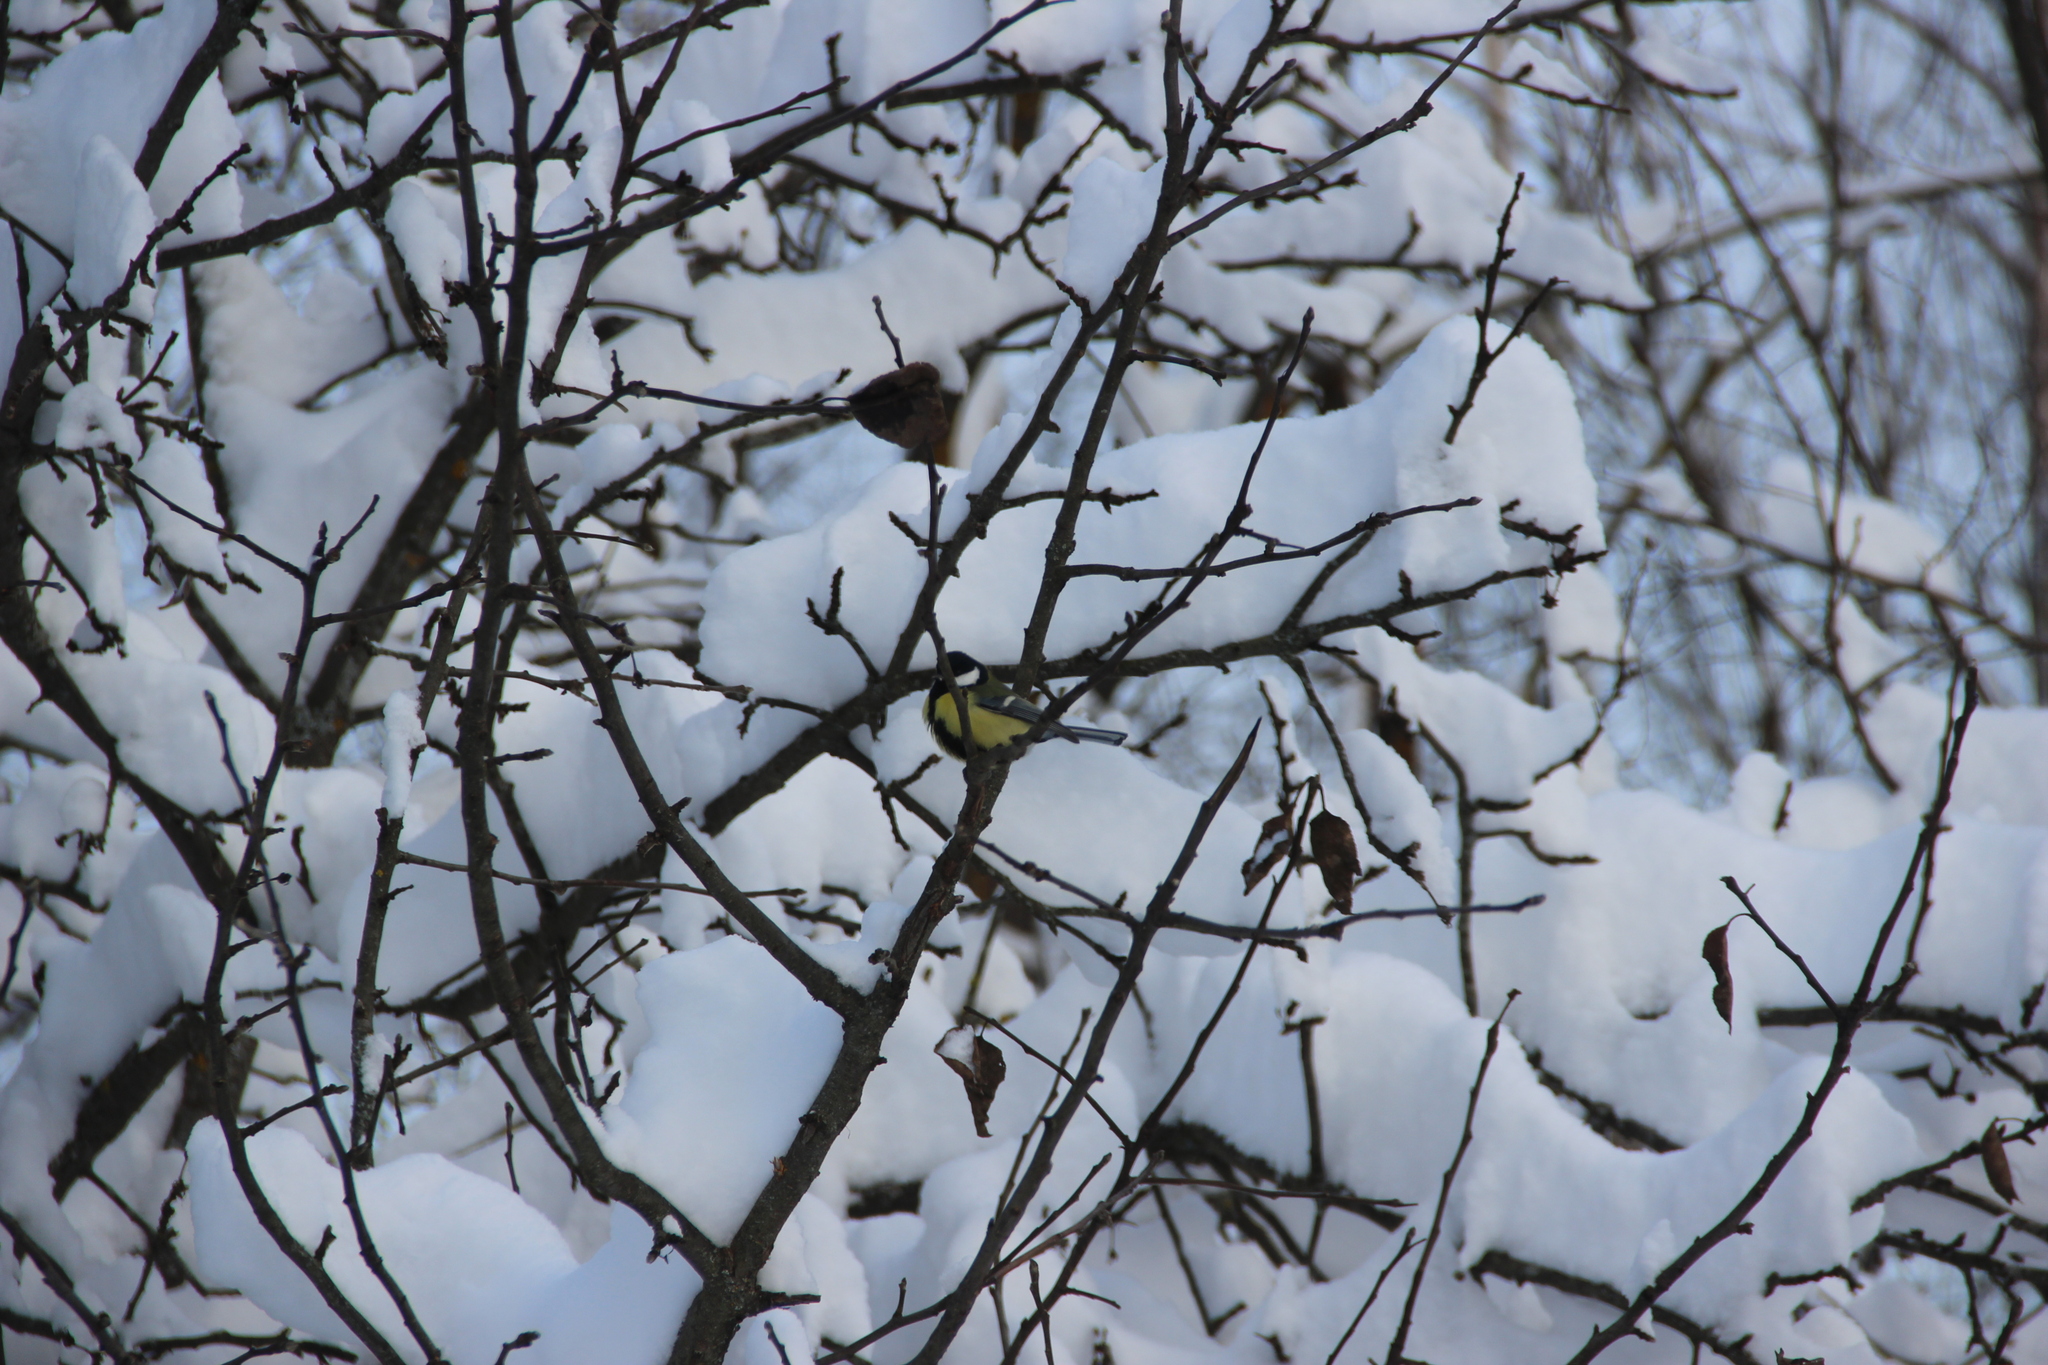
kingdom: Animalia
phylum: Chordata
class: Aves
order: Passeriformes
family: Paridae
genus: Parus
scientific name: Parus major
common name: Great tit
